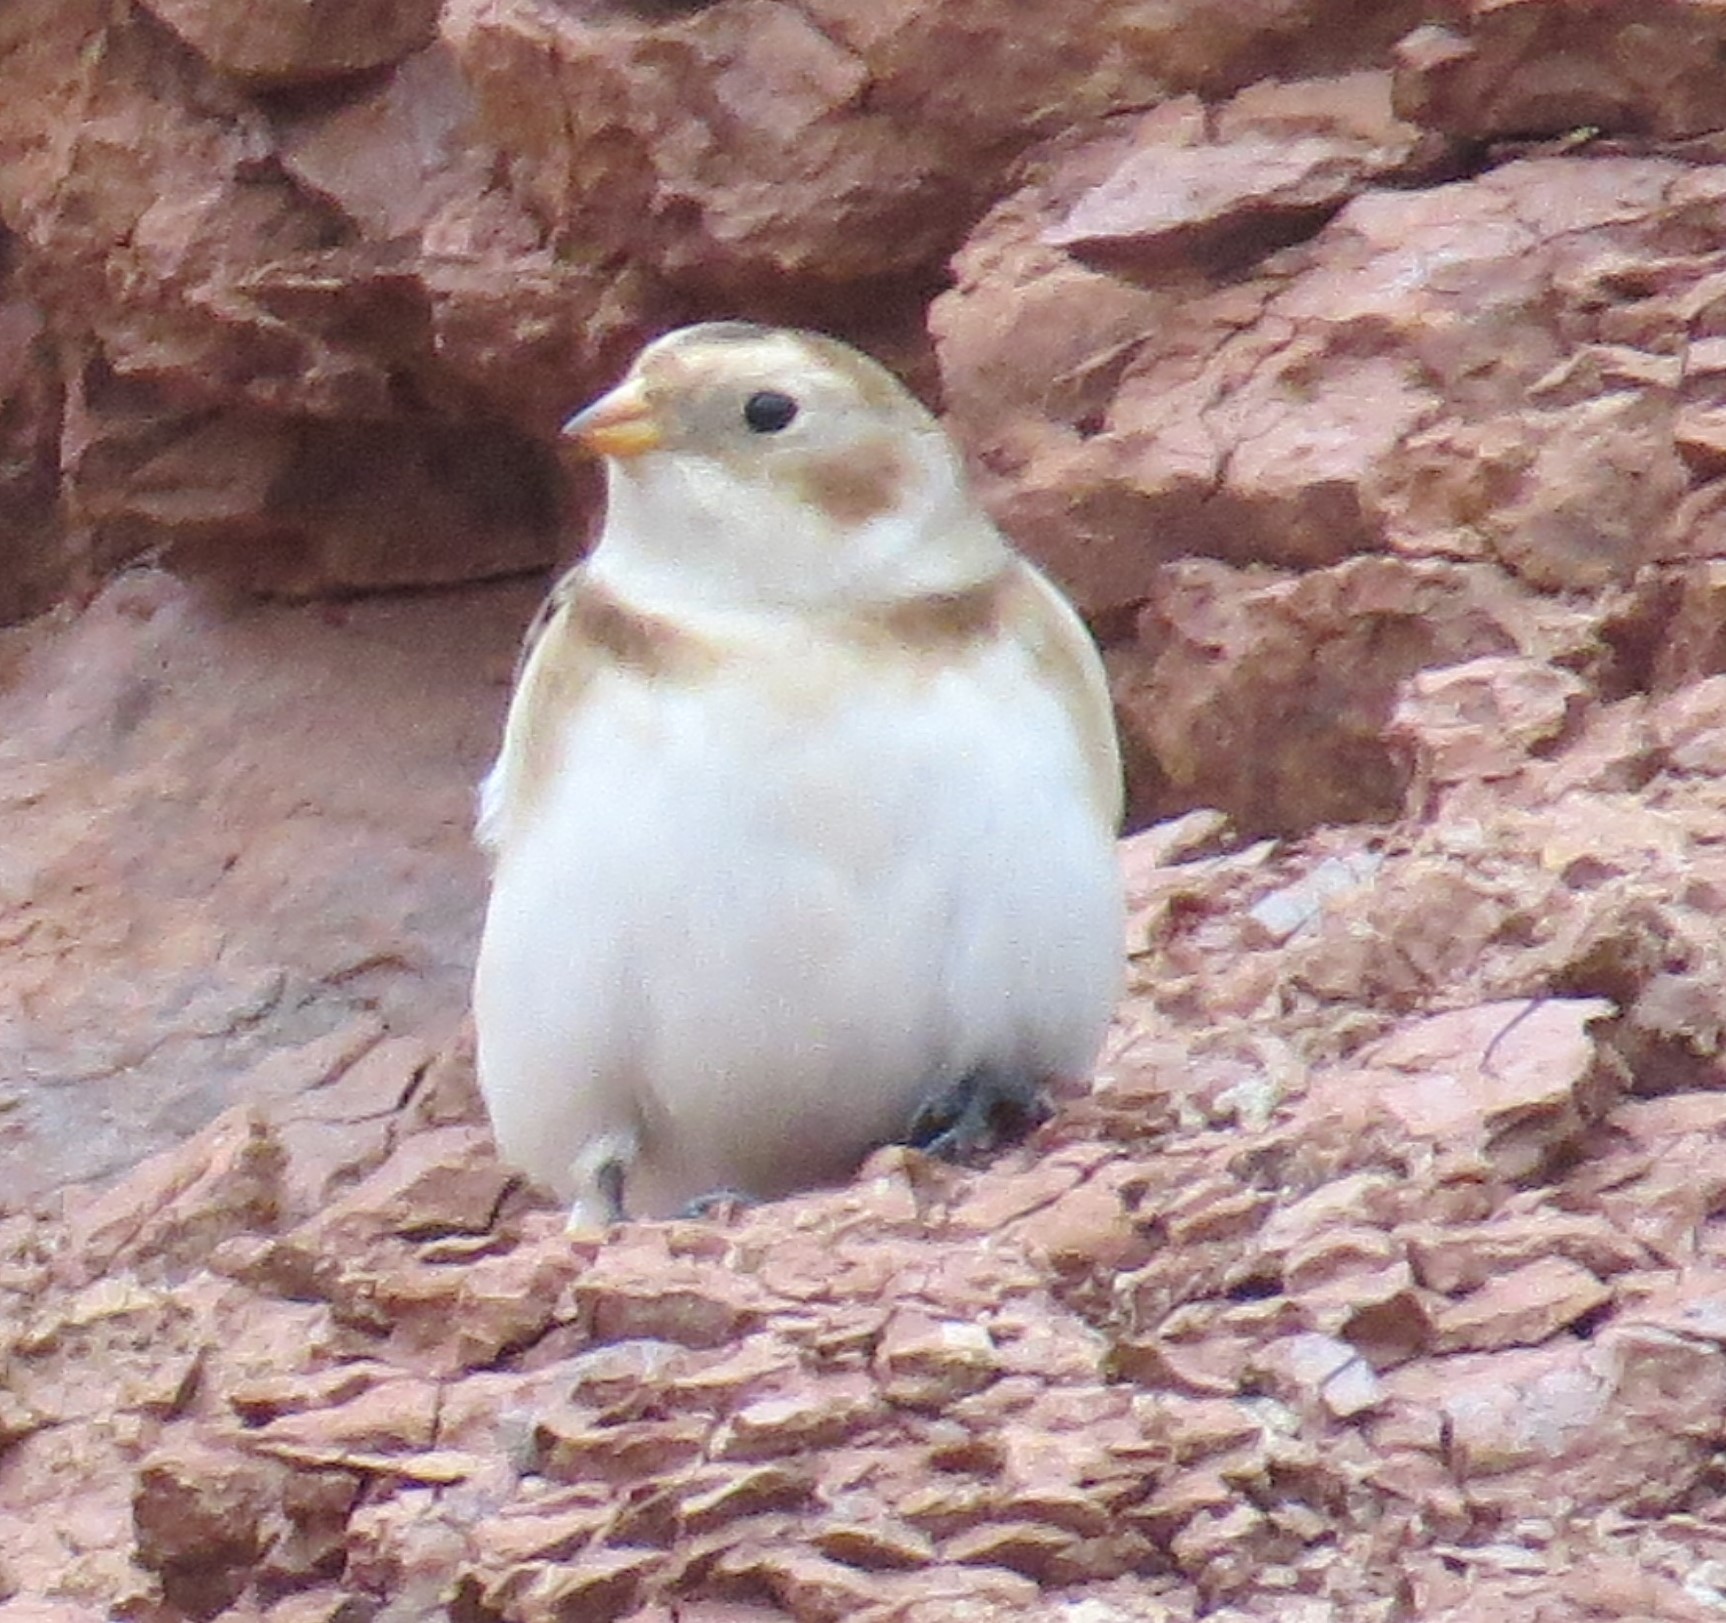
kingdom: Animalia
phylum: Chordata
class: Aves
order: Passeriformes
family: Calcariidae
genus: Plectrophenax
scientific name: Plectrophenax nivalis
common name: Snow bunting
